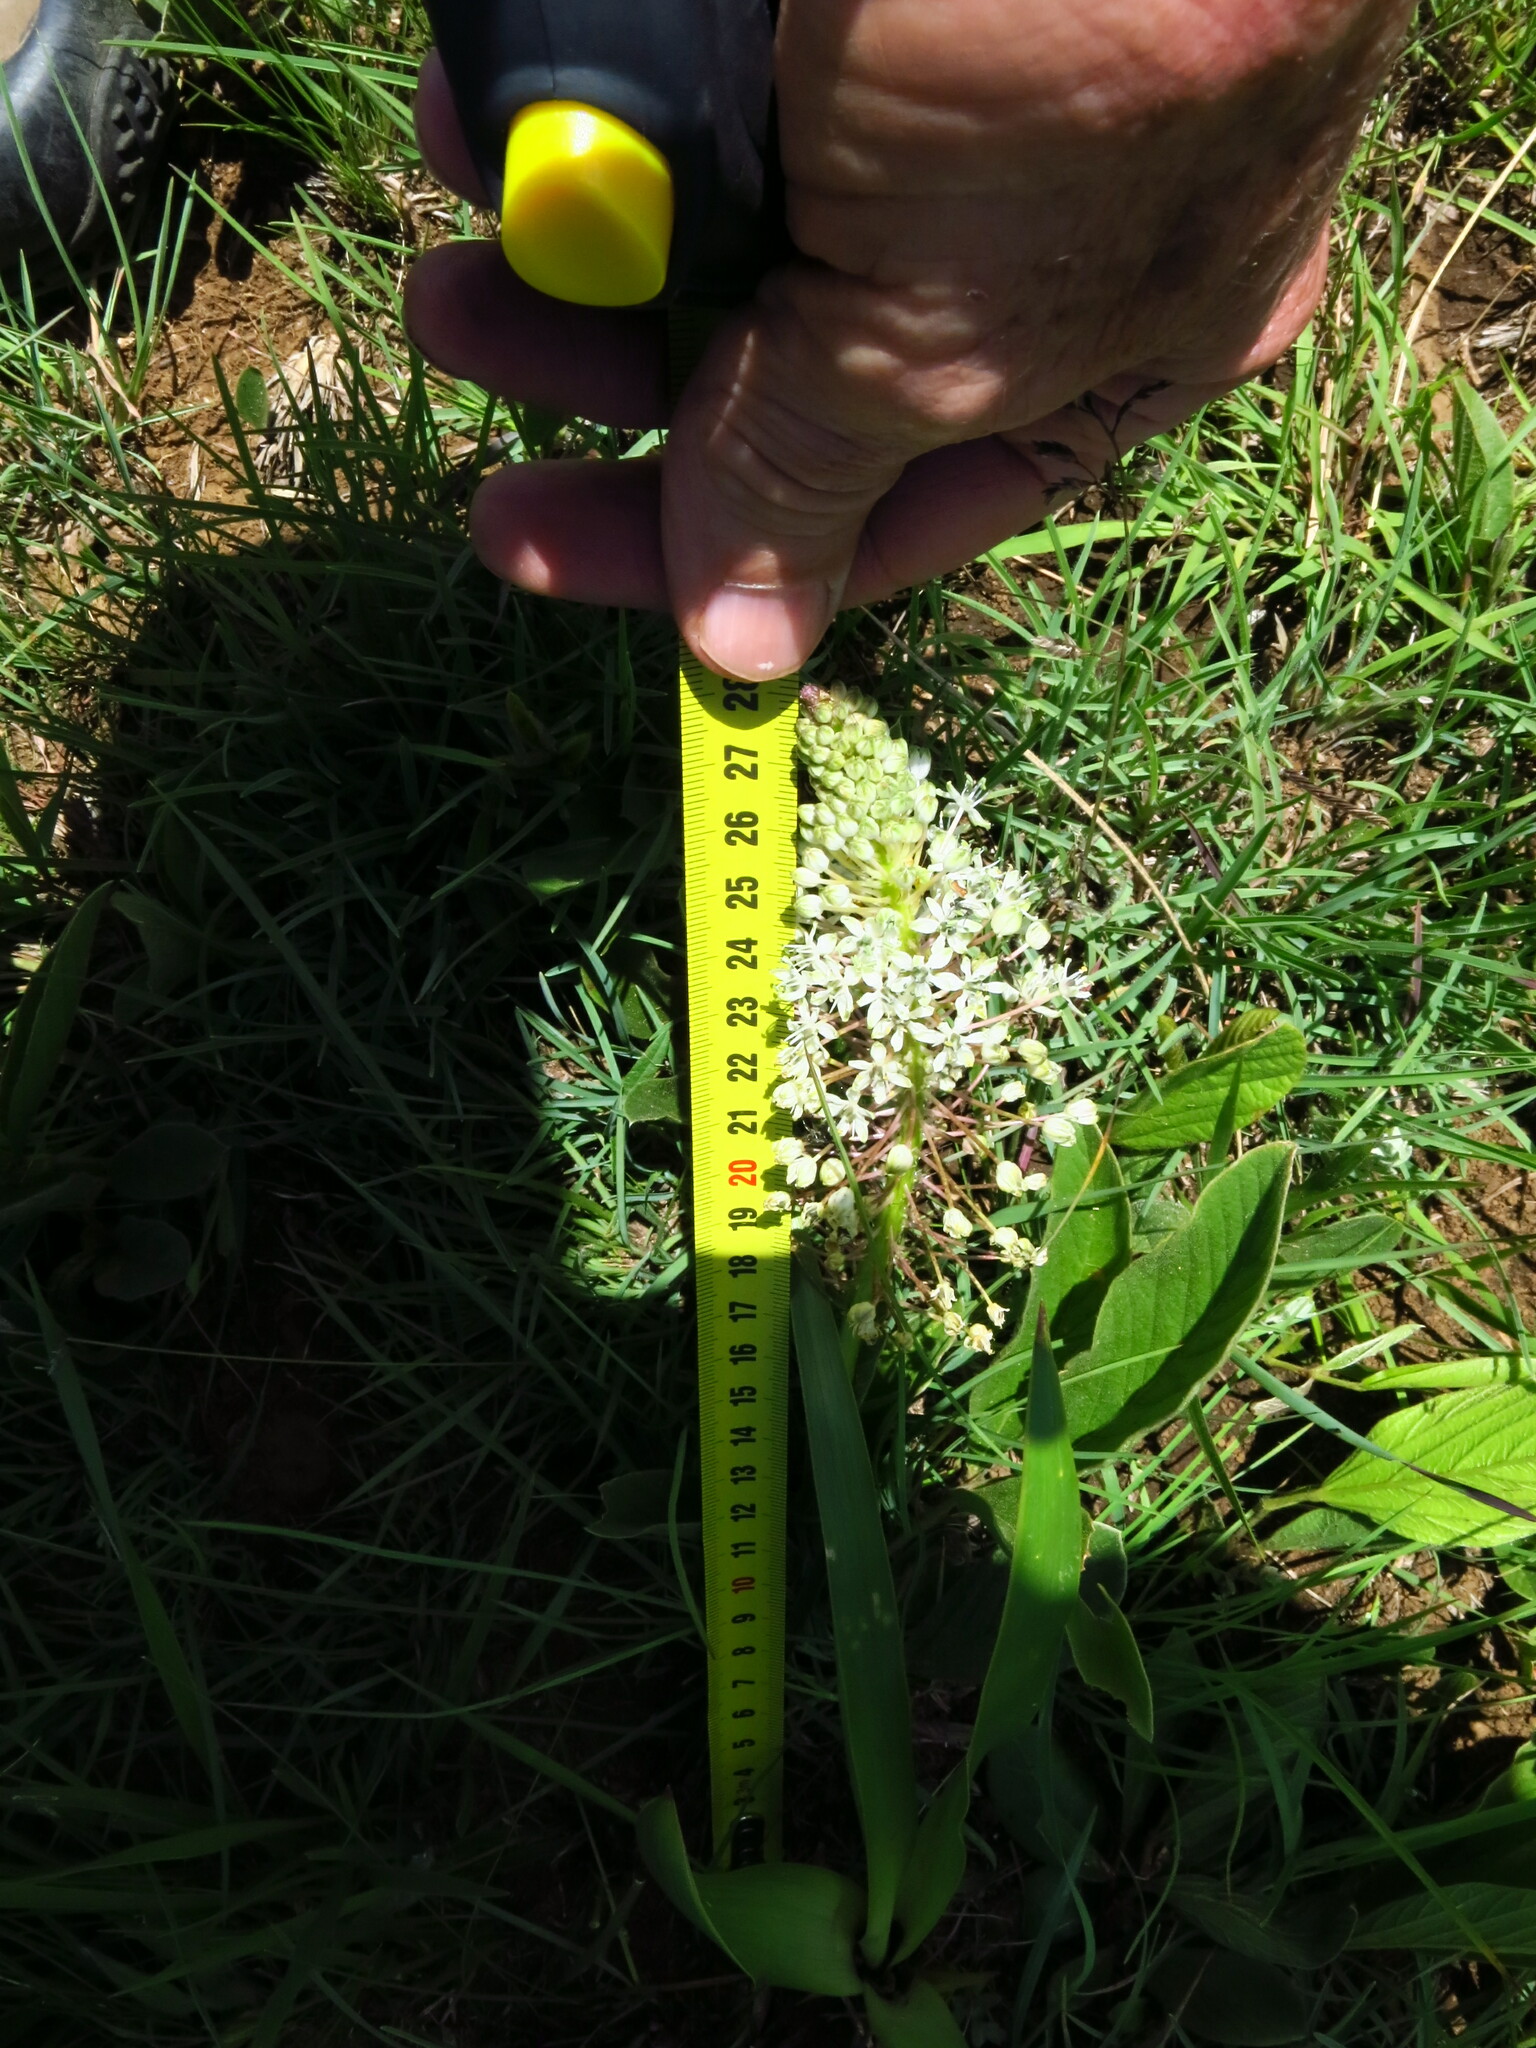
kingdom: Plantae
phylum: Tracheophyta
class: Liliopsida
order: Asparagales
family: Asparagaceae
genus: Schizocarphus
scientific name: Schizocarphus nervosus
